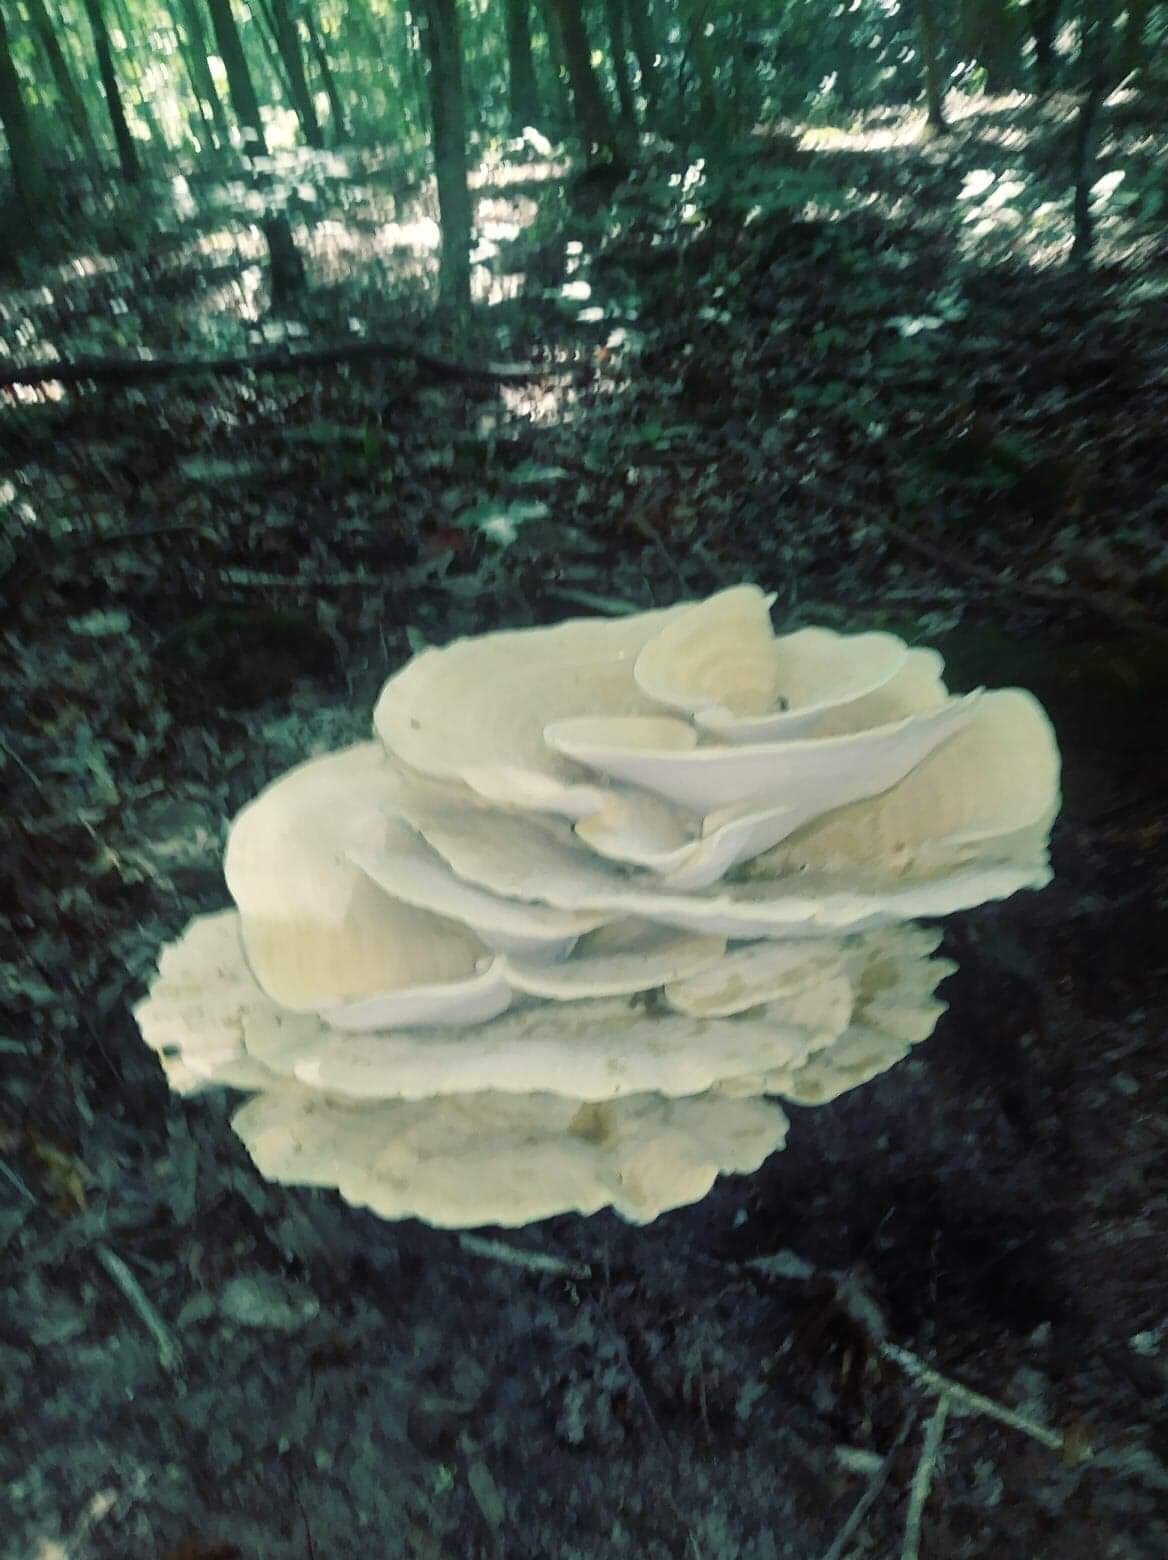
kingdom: Fungi
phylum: Basidiomycota
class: Agaricomycetes
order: Russulales
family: Bondarzewiaceae
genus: Bondarzewia
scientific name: Bondarzewia berkeleyi
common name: Berkeley's polypore
